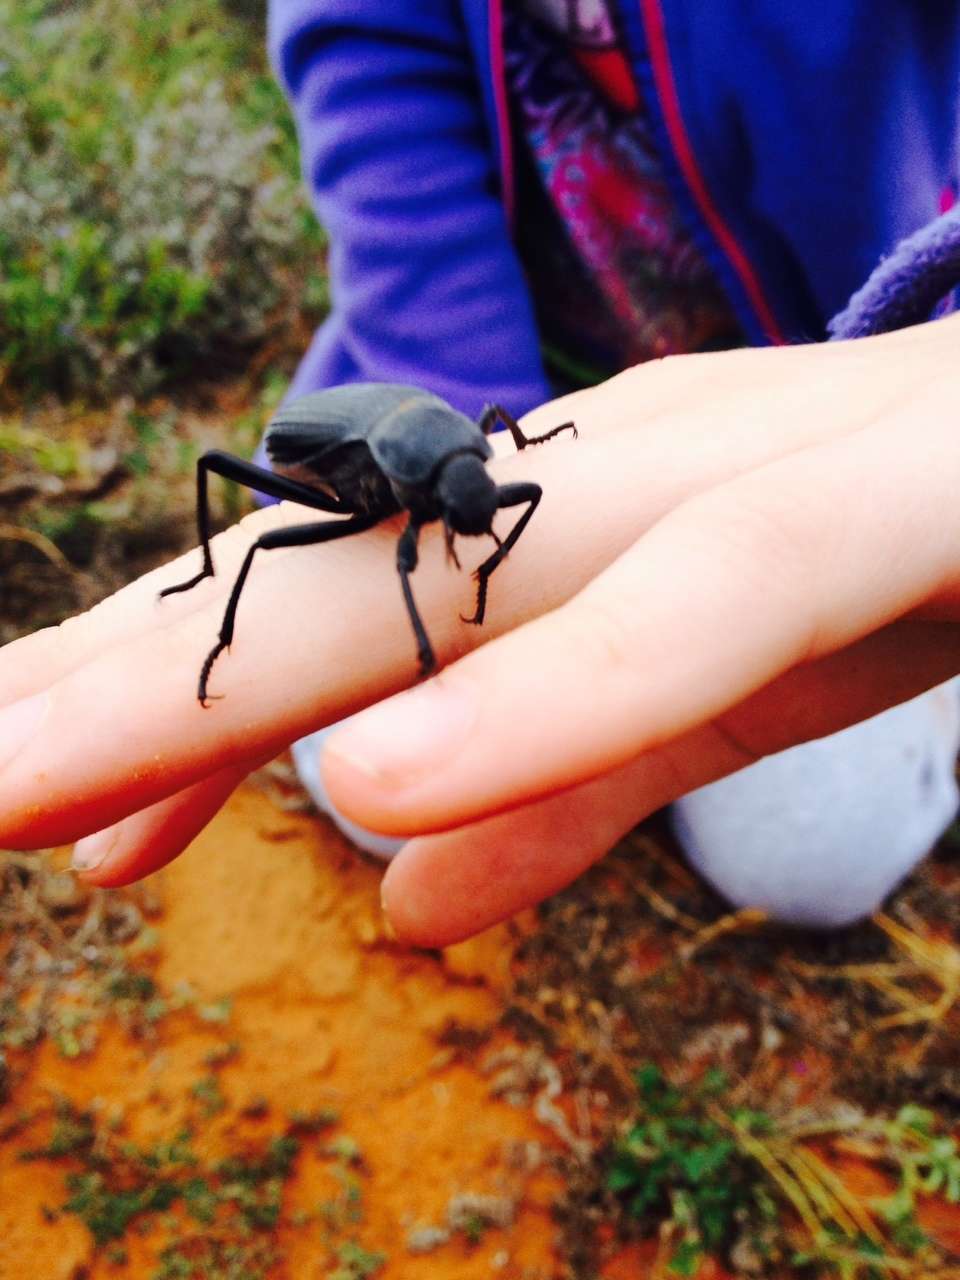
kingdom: Animalia
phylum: Arthropoda
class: Insecta
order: Coleoptera
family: Tenebrionidae
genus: Blaps
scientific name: Blaps polychresta
